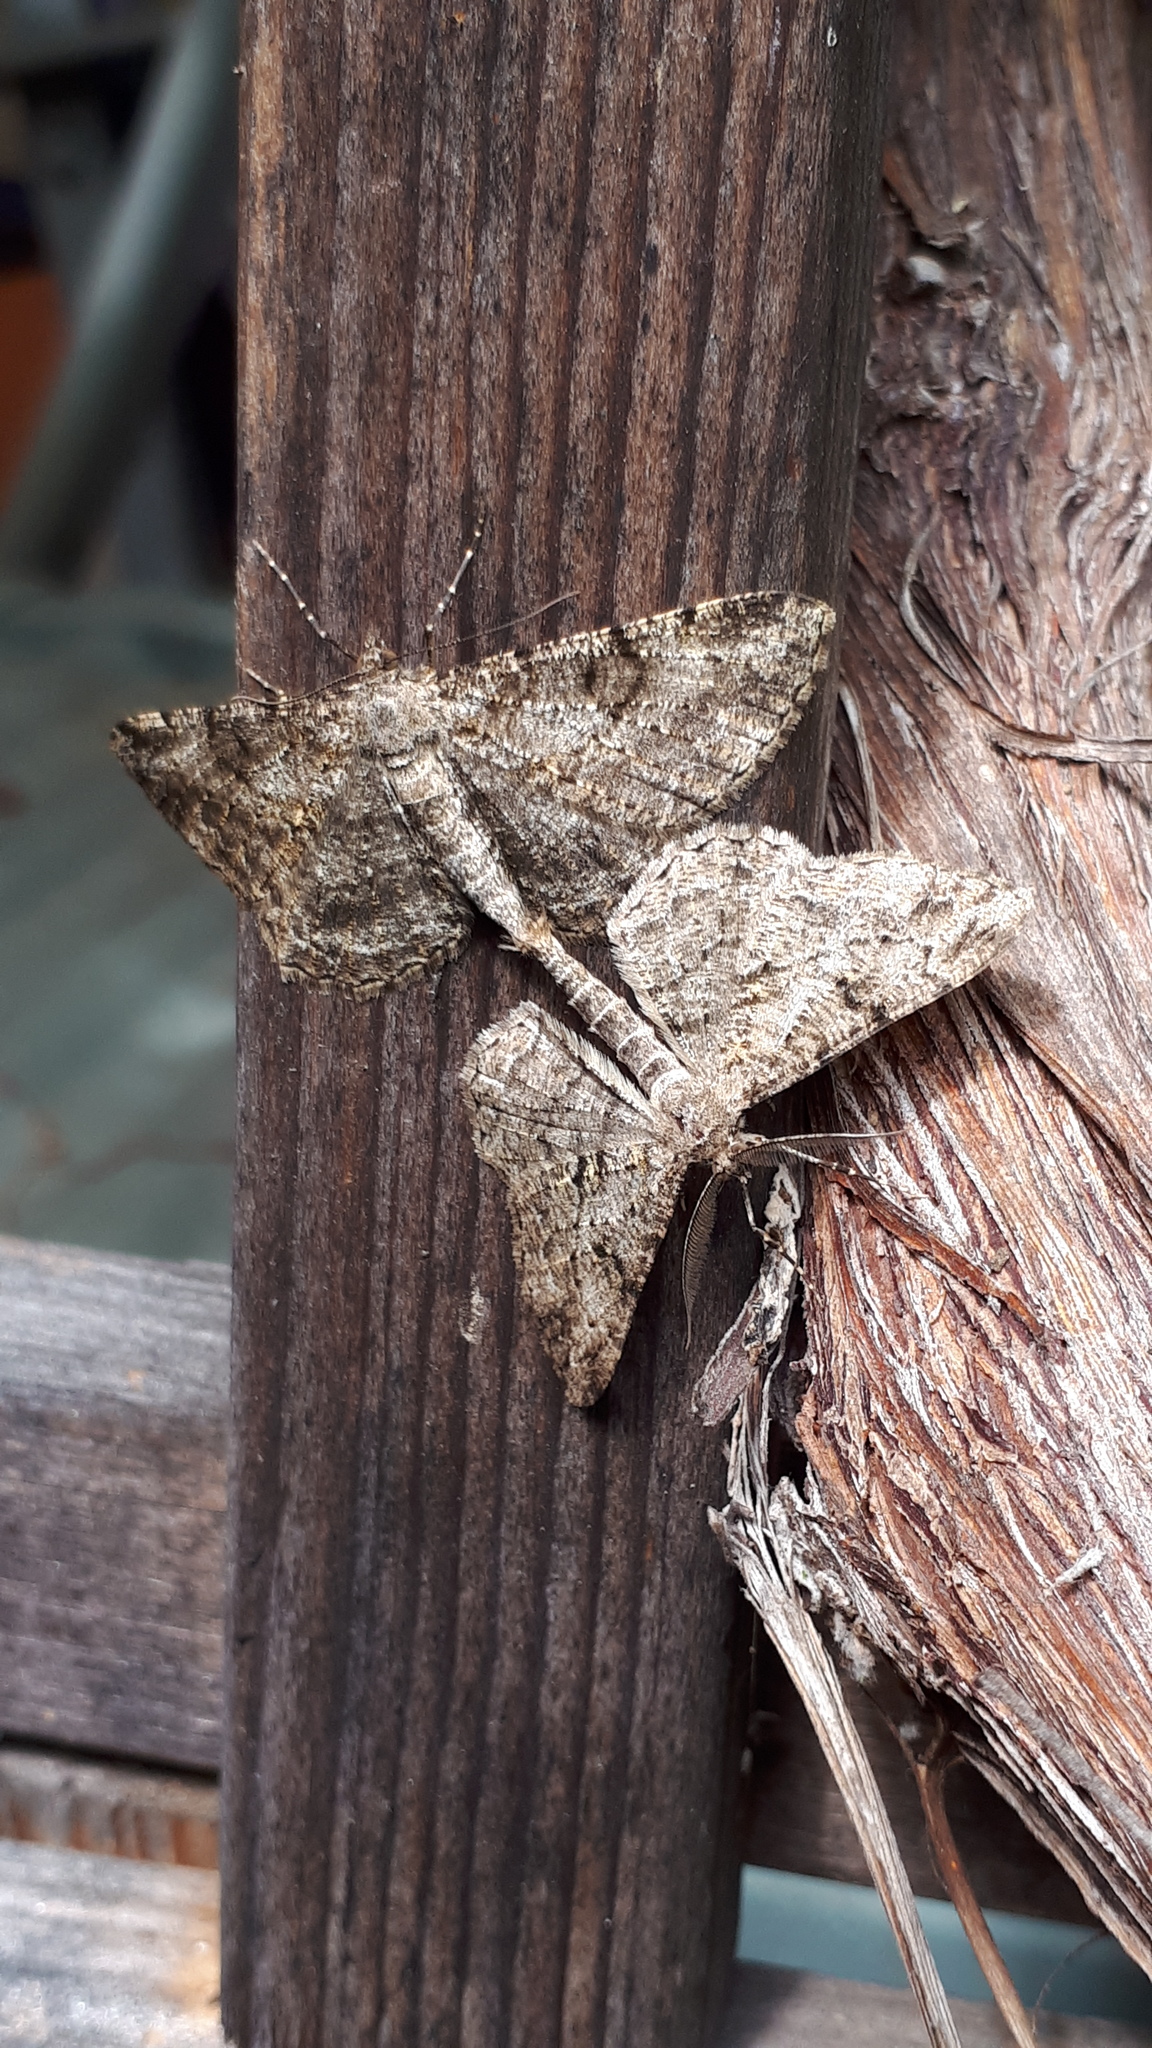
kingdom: Animalia
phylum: Arthropoda
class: Insecta
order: Lepidoptera
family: Geometridae
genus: Peribatodes
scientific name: Peribatodes rhomboidaria
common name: Willow beauty
